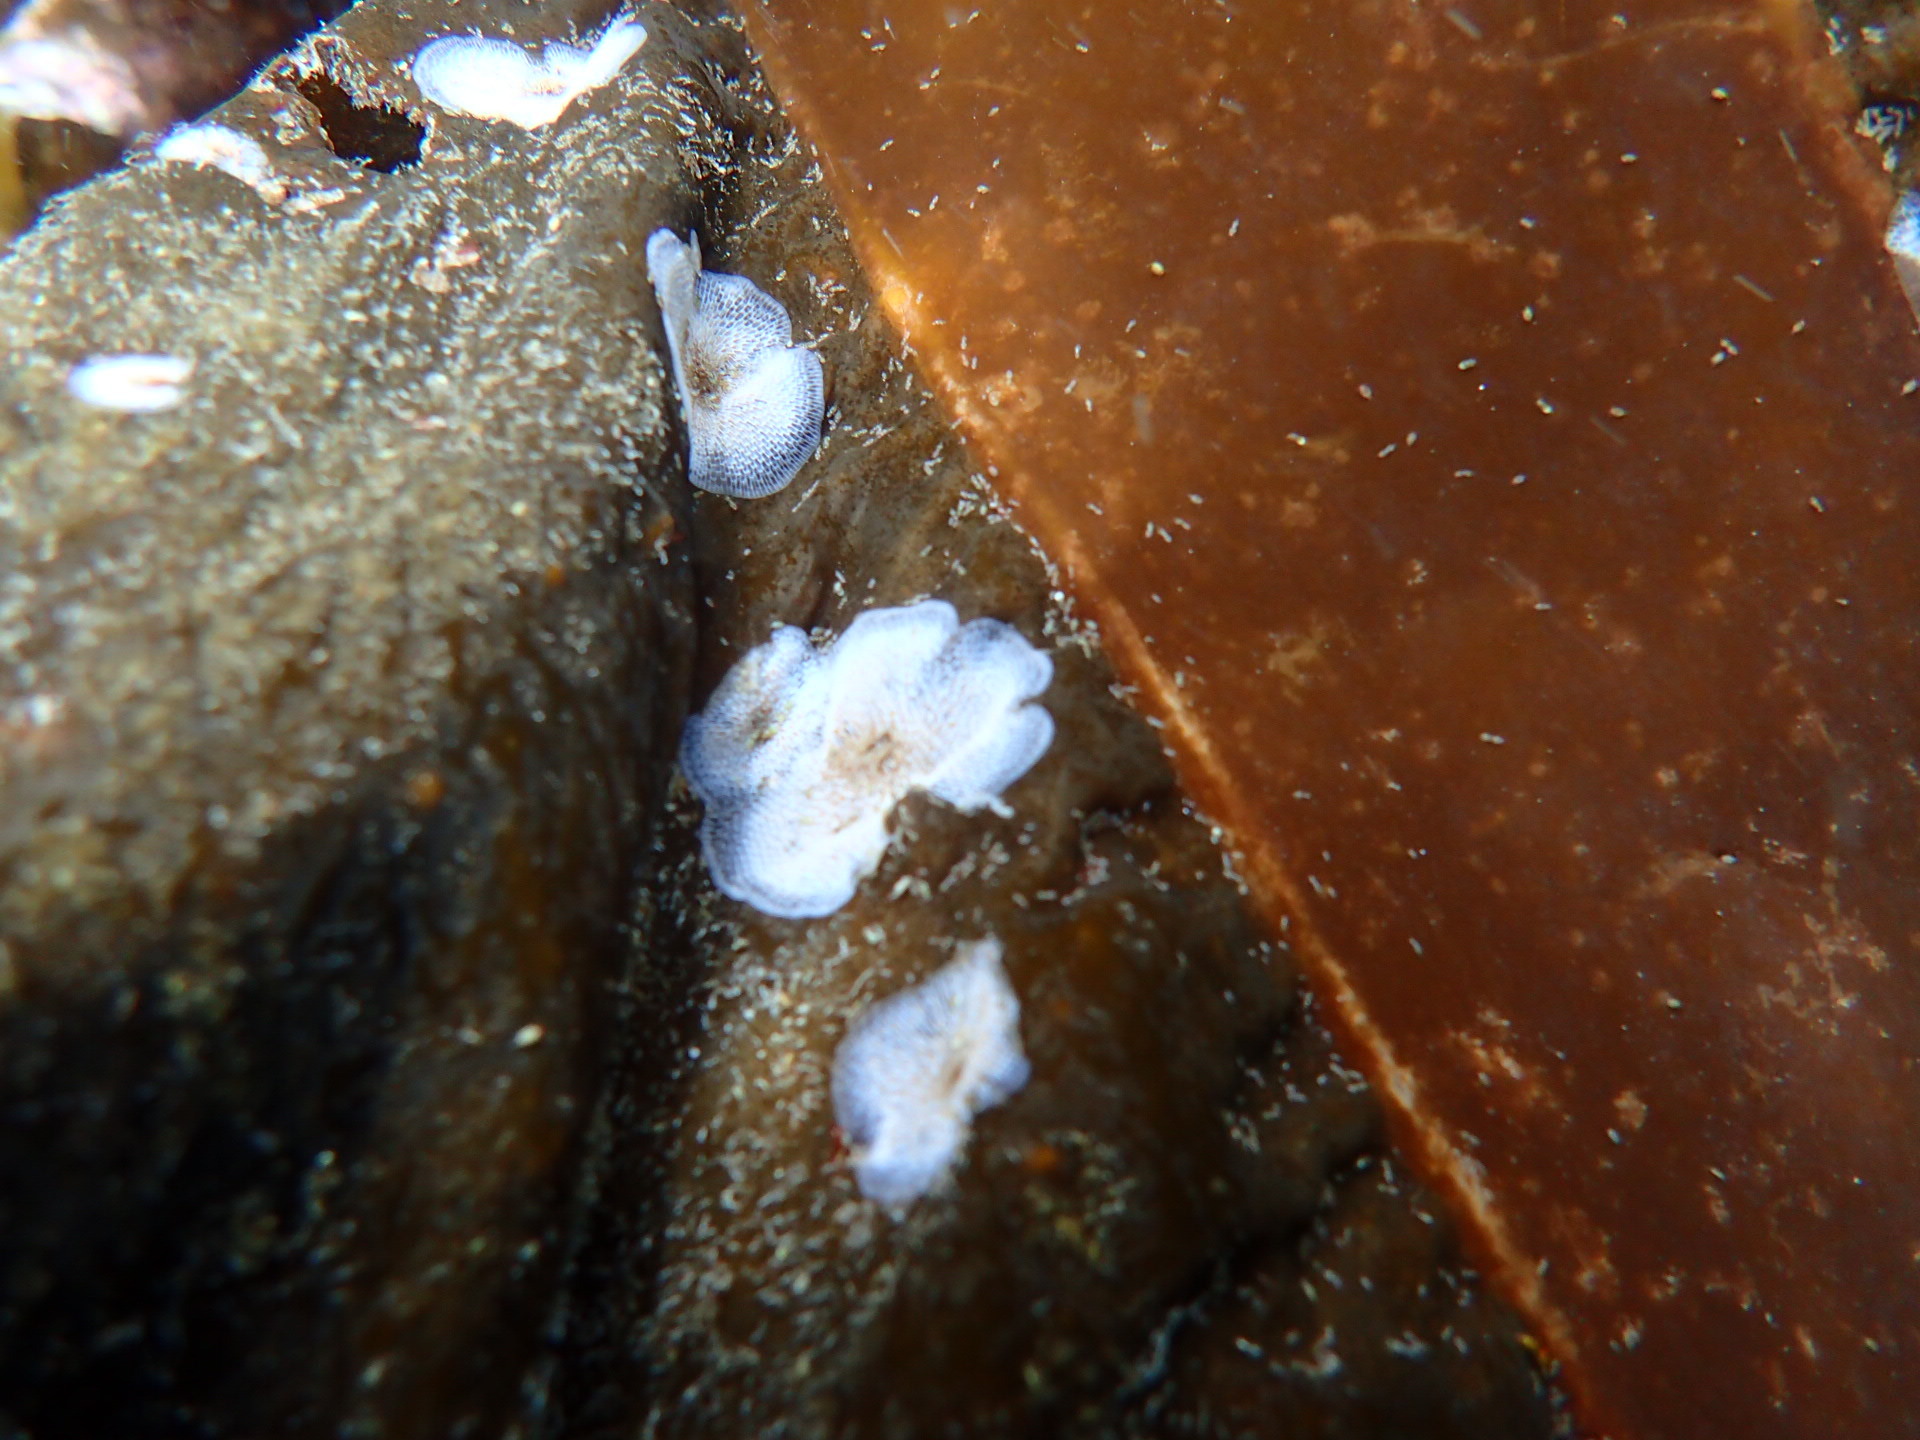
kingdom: Animalia
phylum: Bryozoa
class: Gymnolaemata
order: Cheilostomatida
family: Membraniporidae
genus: Membranipora
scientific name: Membranipora membranacea
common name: Sea mat
